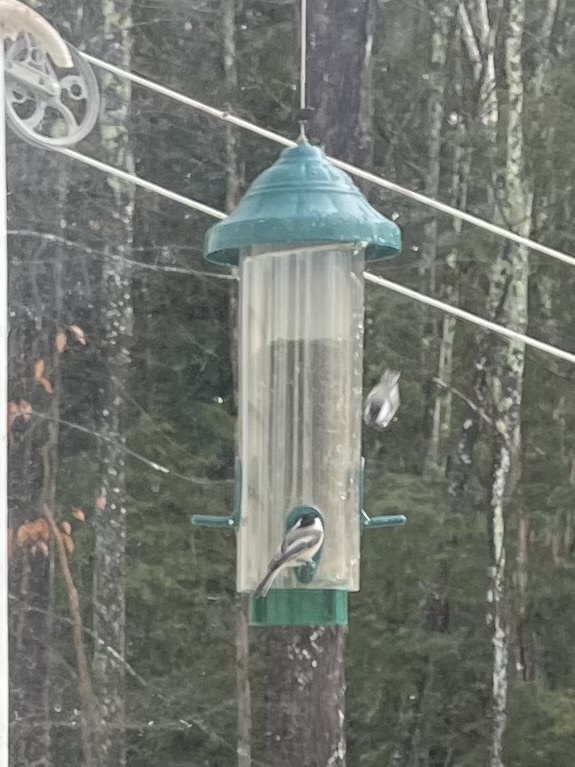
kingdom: Animalia
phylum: Chordata
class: Aves
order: Passeriformes
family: Paridae
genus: Poecile
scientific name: Poecile atricapillus
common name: Black-capped chickadee
